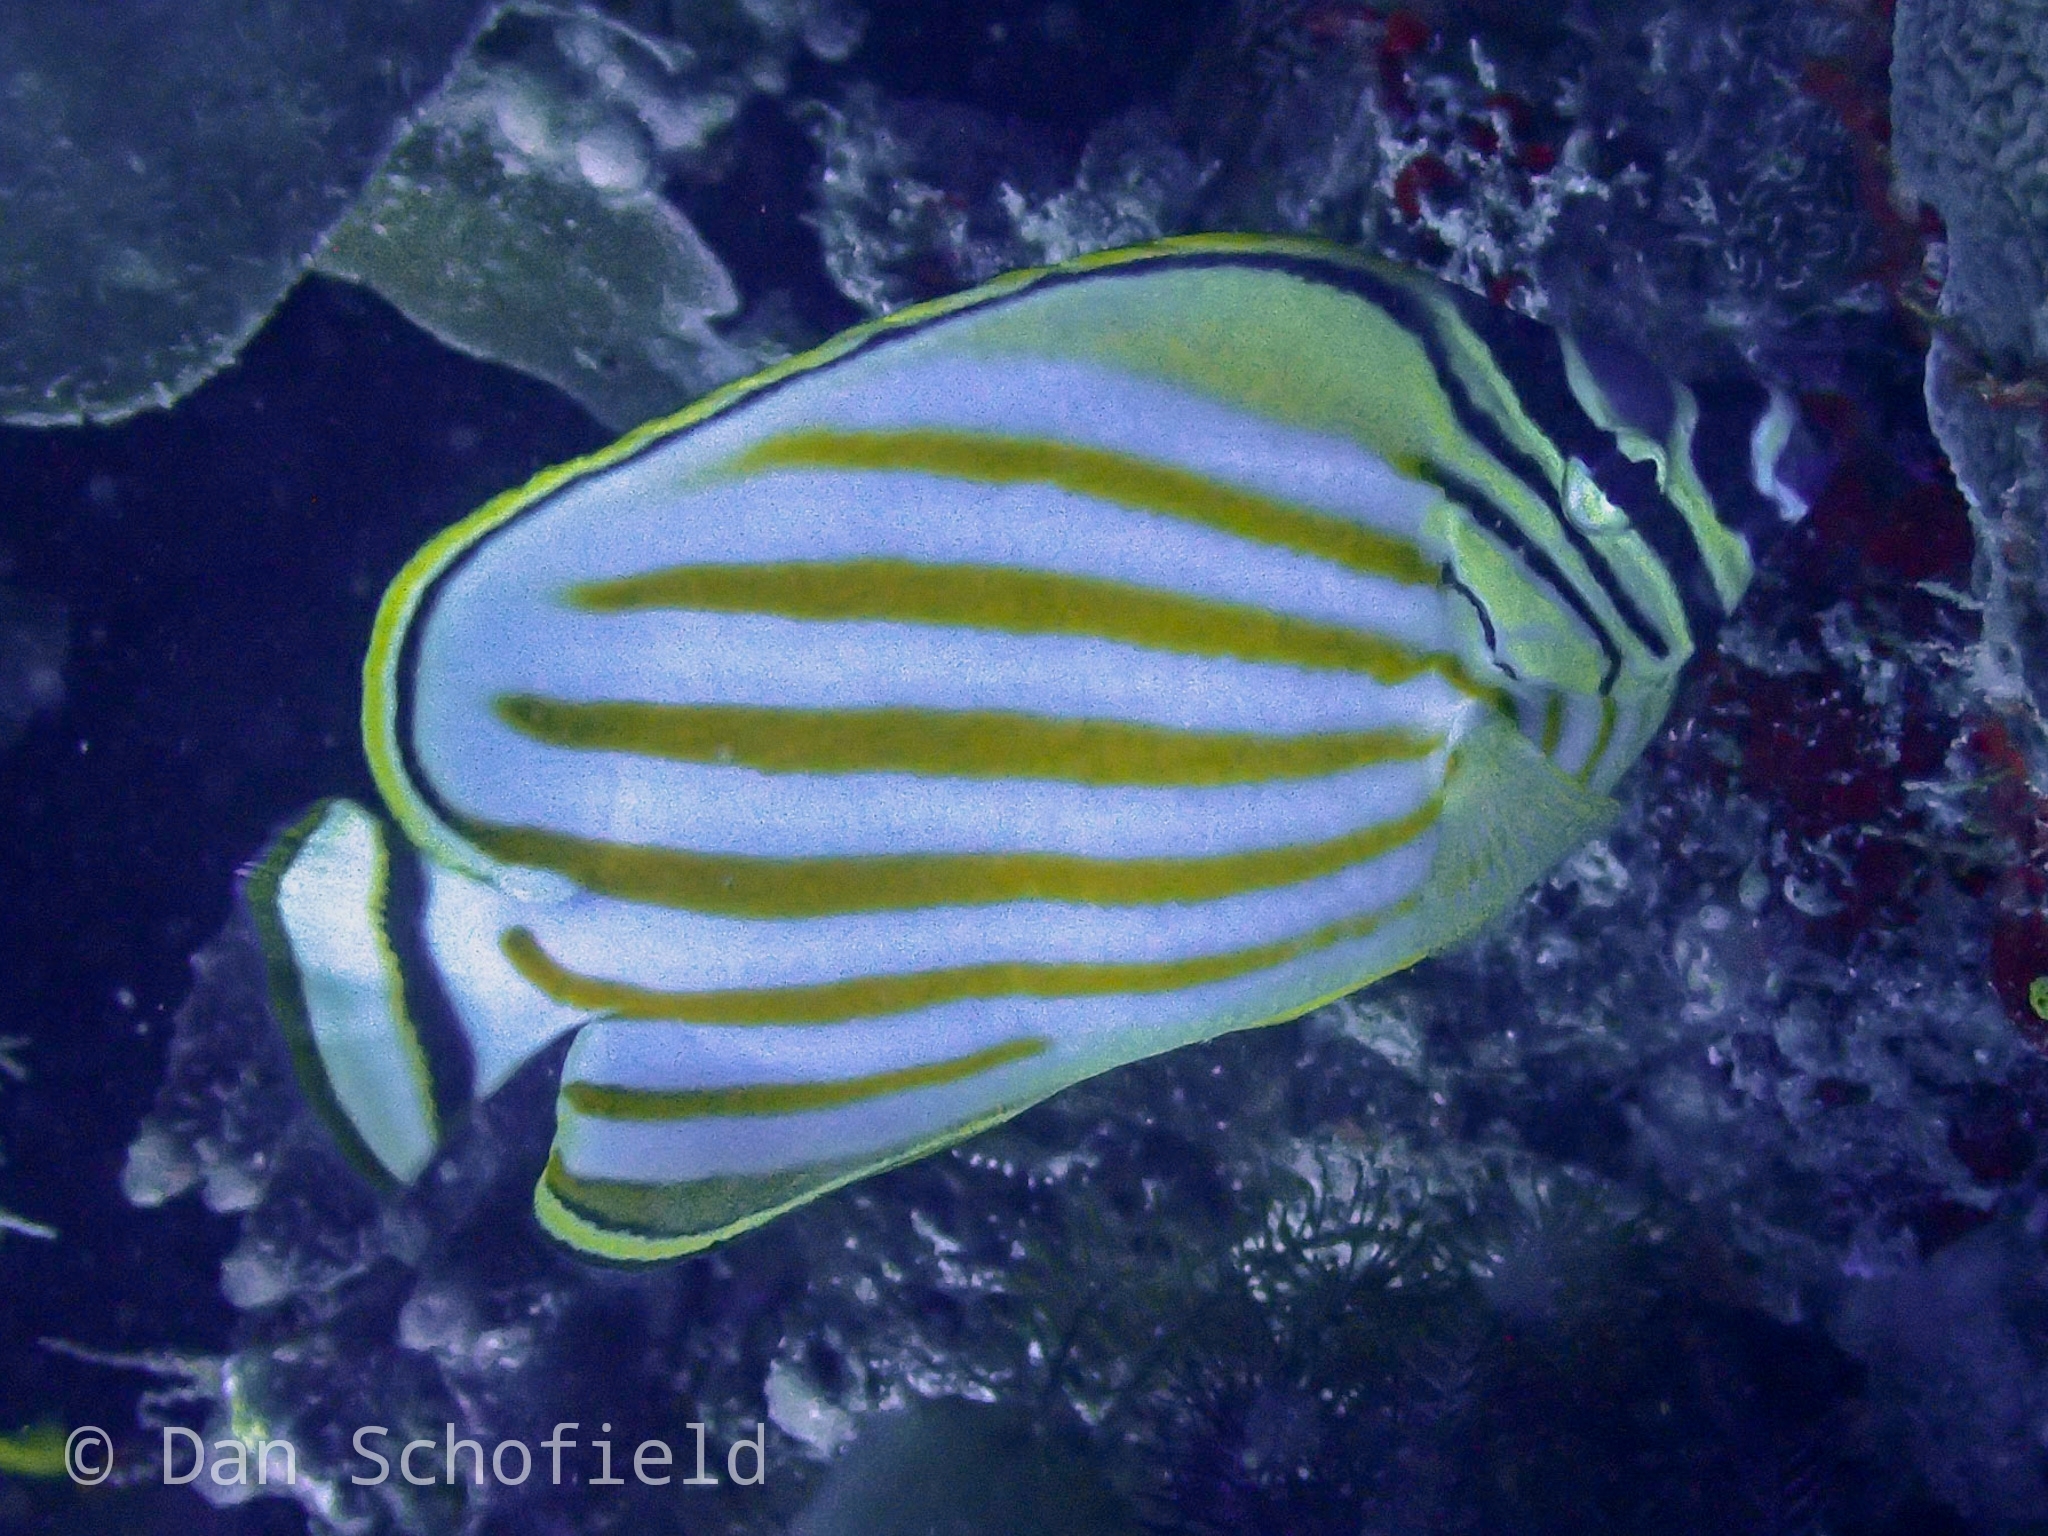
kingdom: Animalia
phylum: Chordata
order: Perciformes
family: Chaetodontidae
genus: Chaetodon
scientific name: Chaetodon ornatissimus
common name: Ornate butterflyfish
